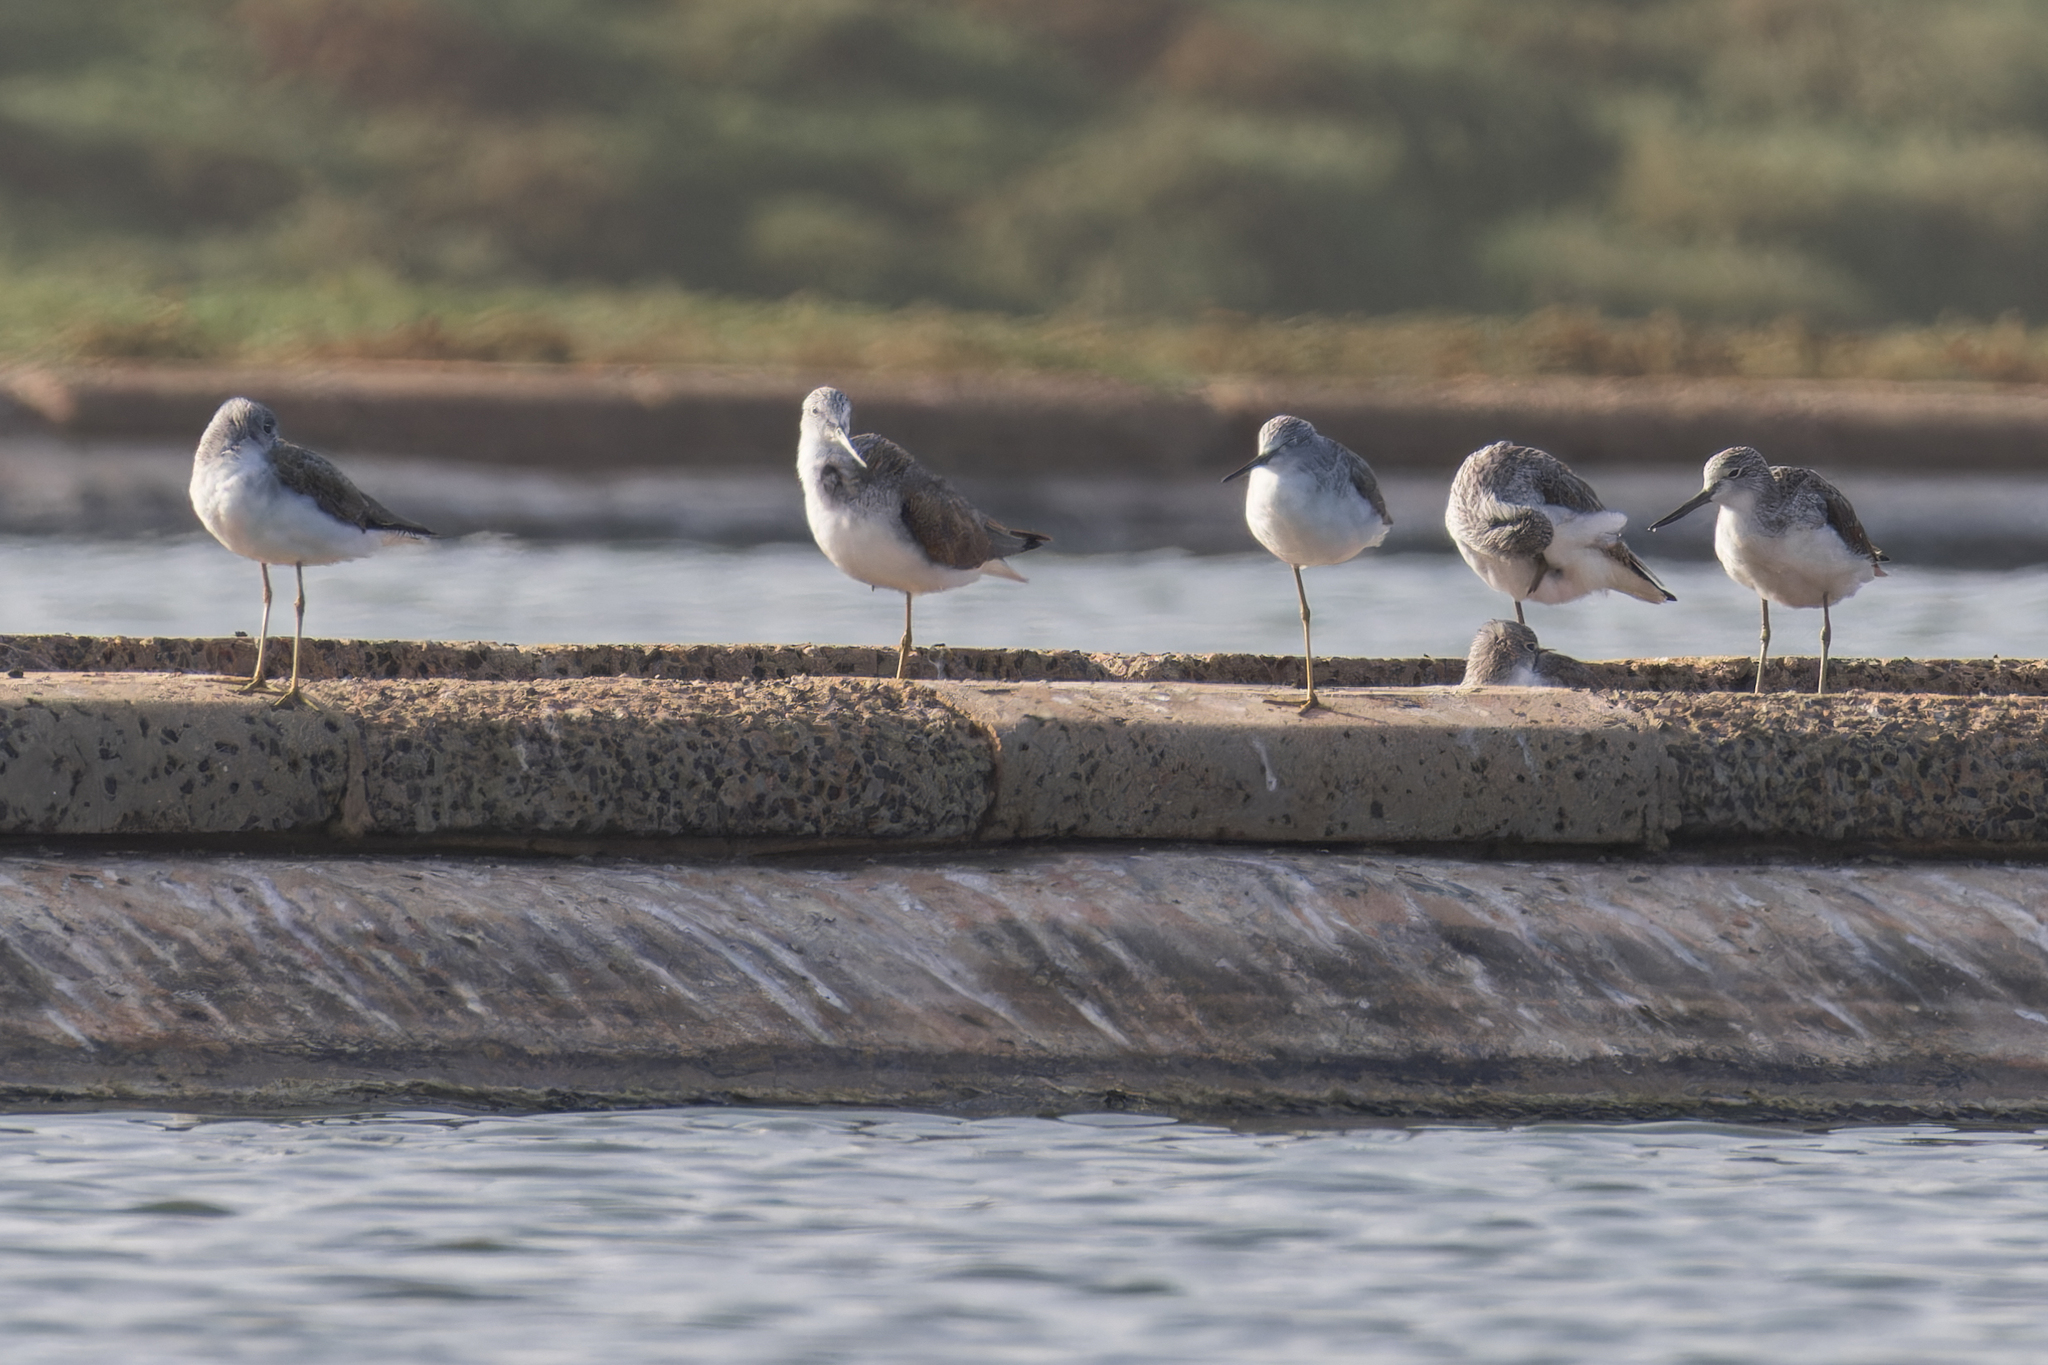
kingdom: Animalia
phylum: Chordata
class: Aves
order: Charadriiformes
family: Scolopacidae
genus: Tringa
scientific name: Tringa nebularia
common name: Common greenshank
